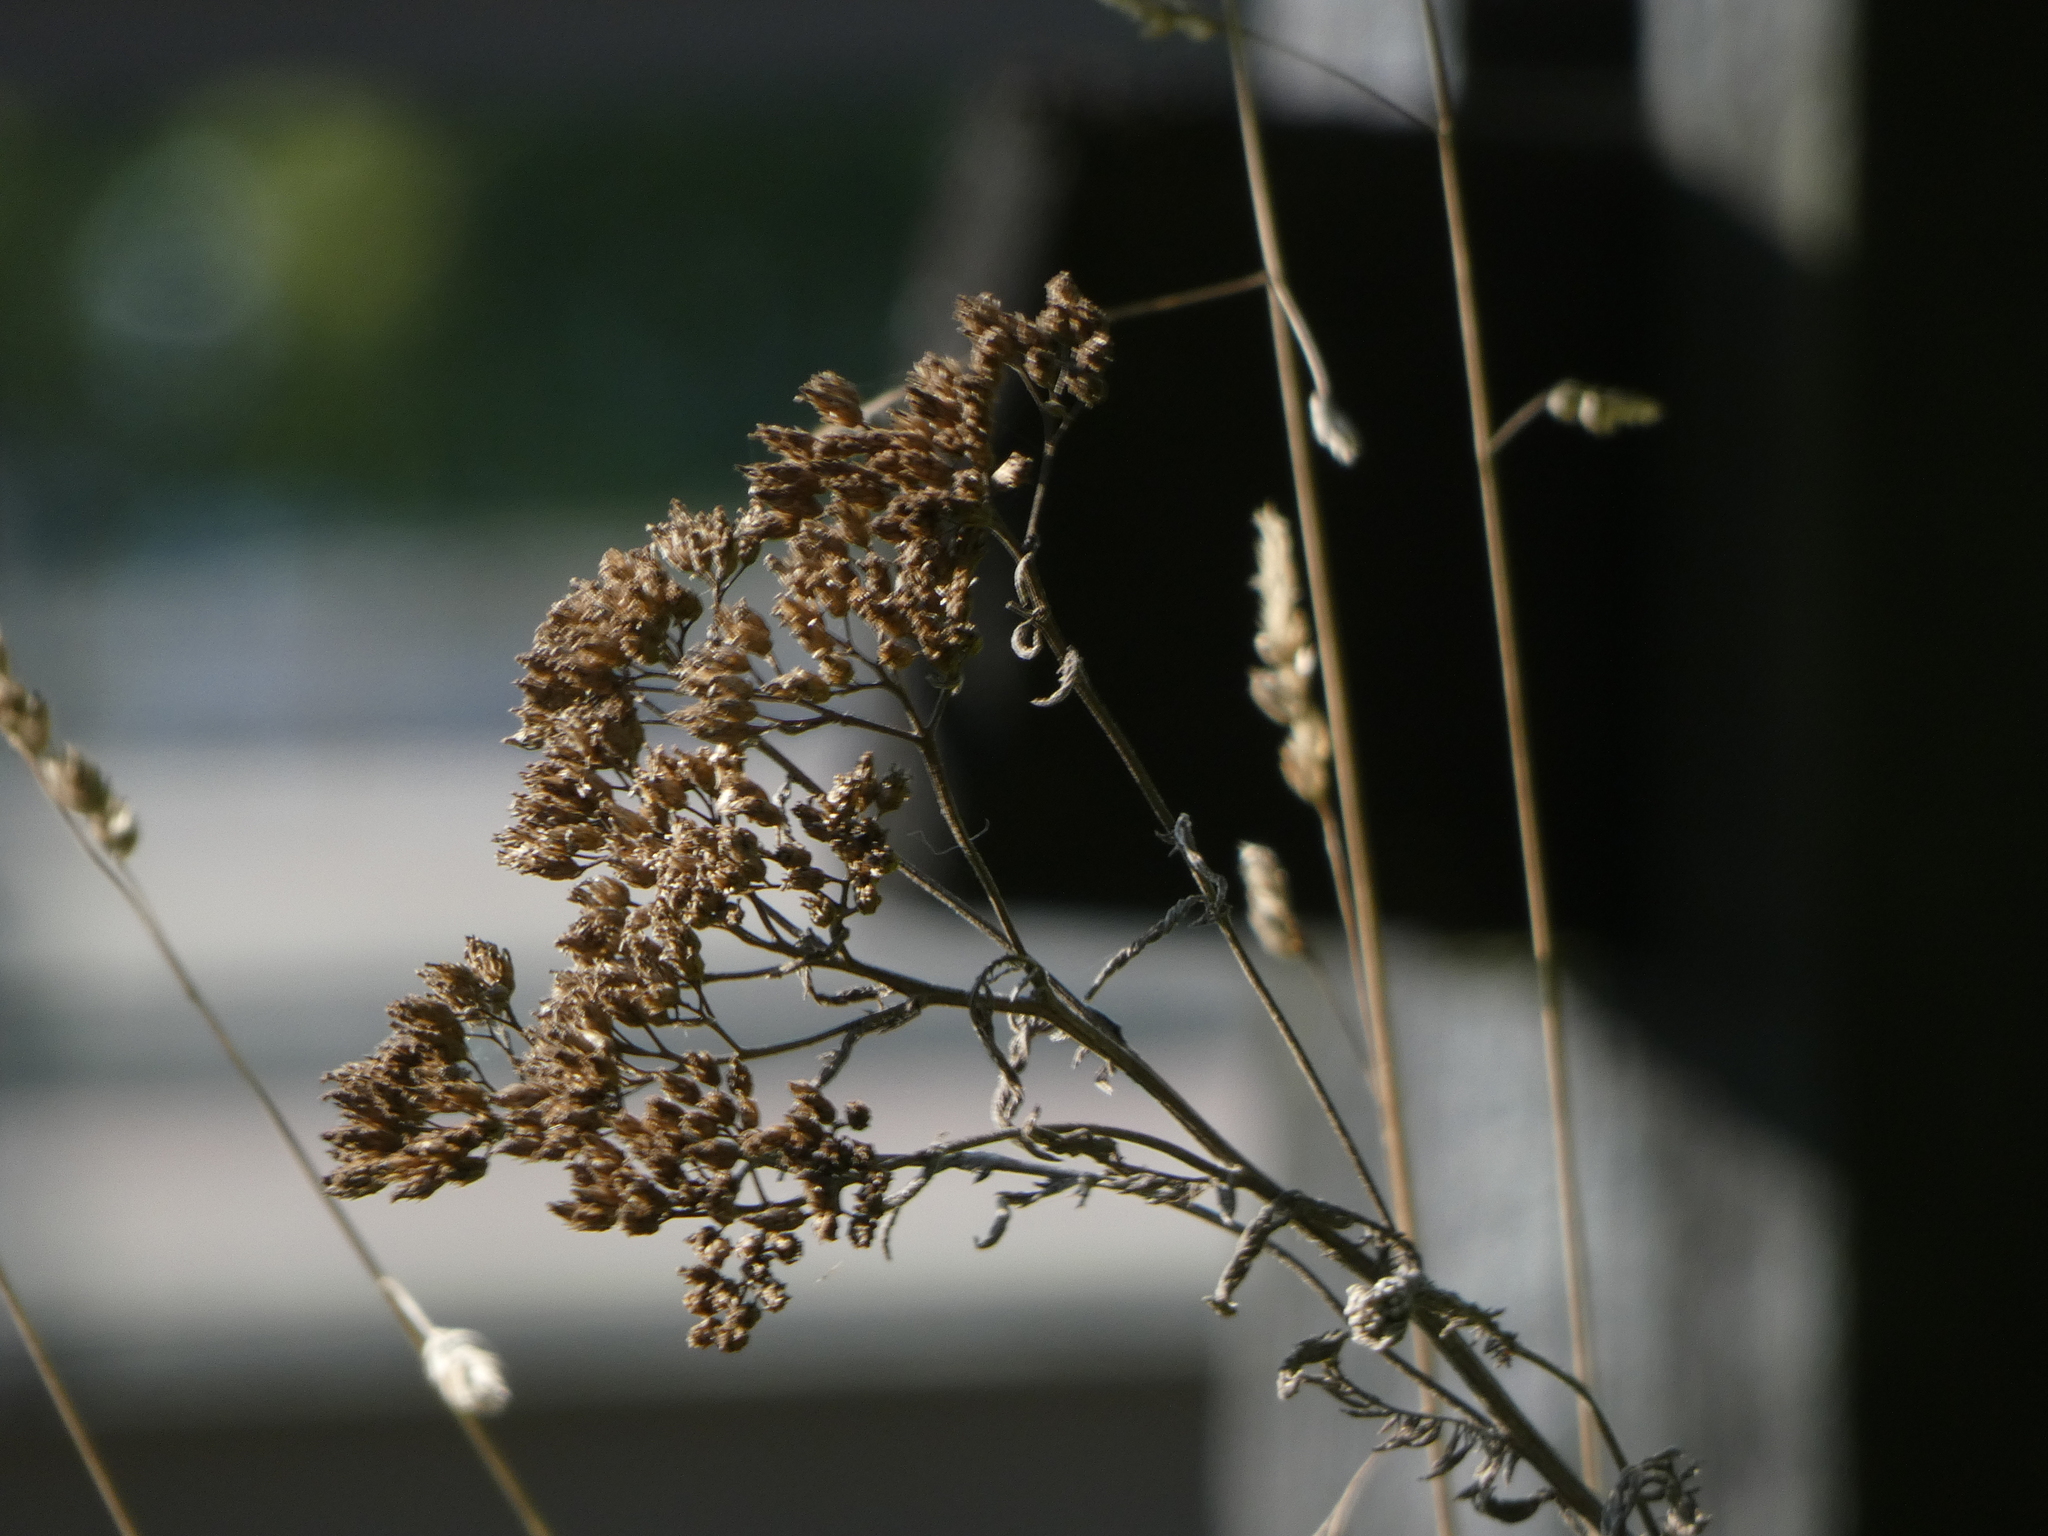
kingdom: Plantae
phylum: Tracheophyta
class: Magnoliopsida
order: Asterales
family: Asteraceae
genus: Achillea
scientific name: Achillea millefolium
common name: Yarrow
